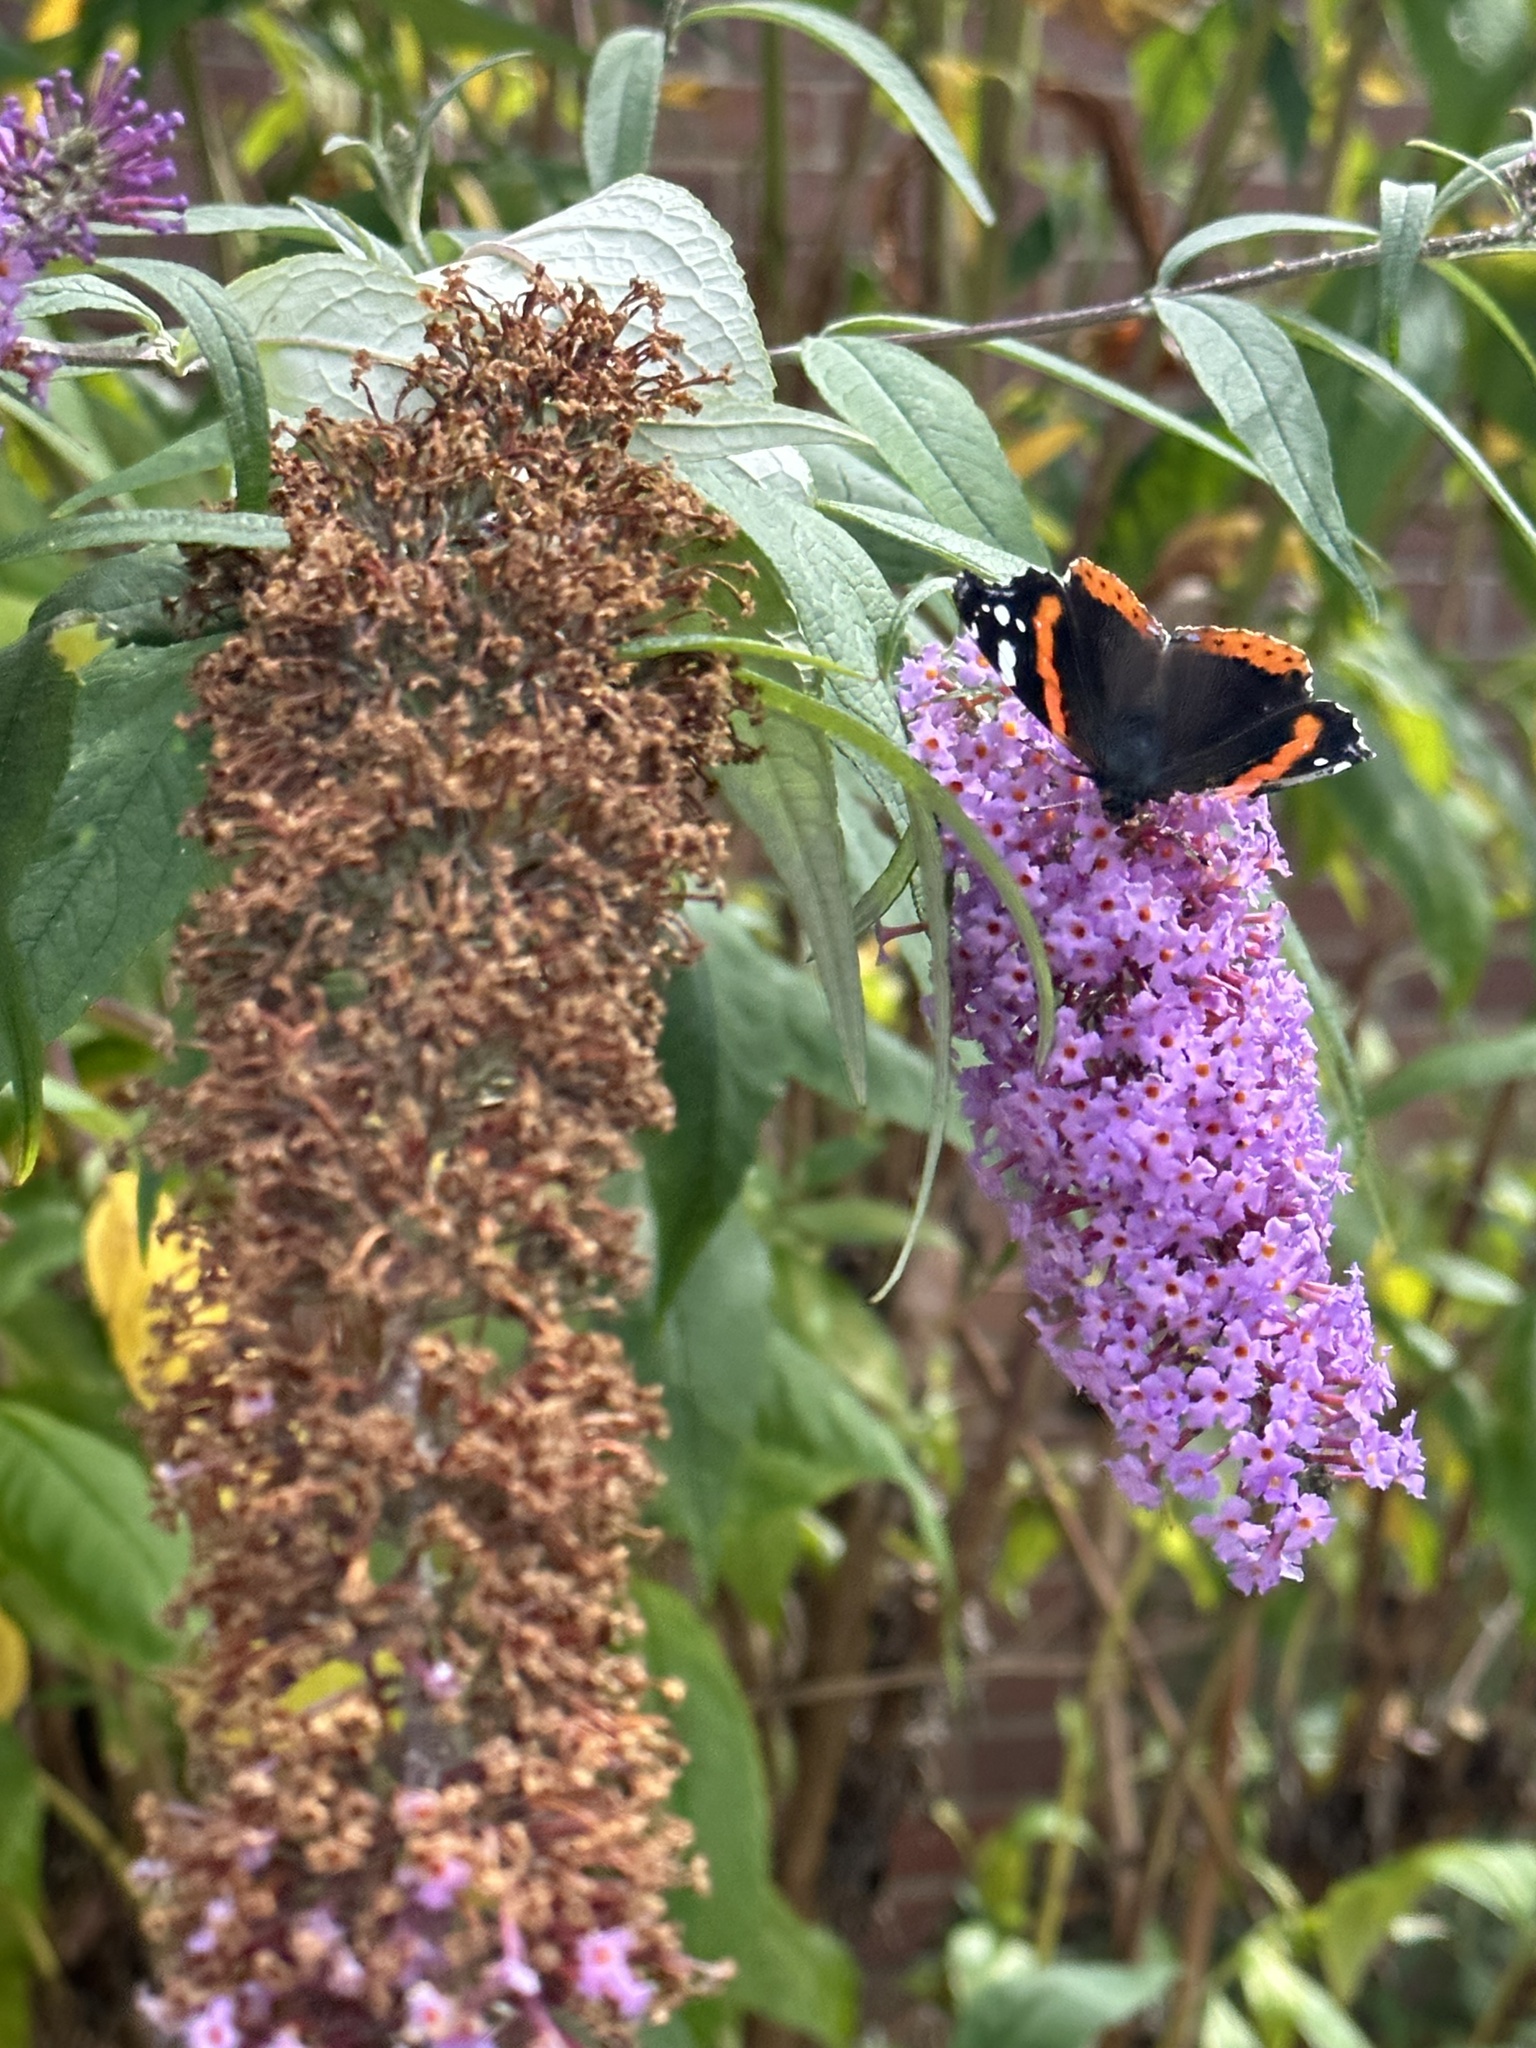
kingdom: Animalia
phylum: Arthropoda
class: Insecta
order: Lepidoptera
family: Nymphalidae
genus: Vanessa
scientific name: Vanessa atalanta
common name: Red admiral
